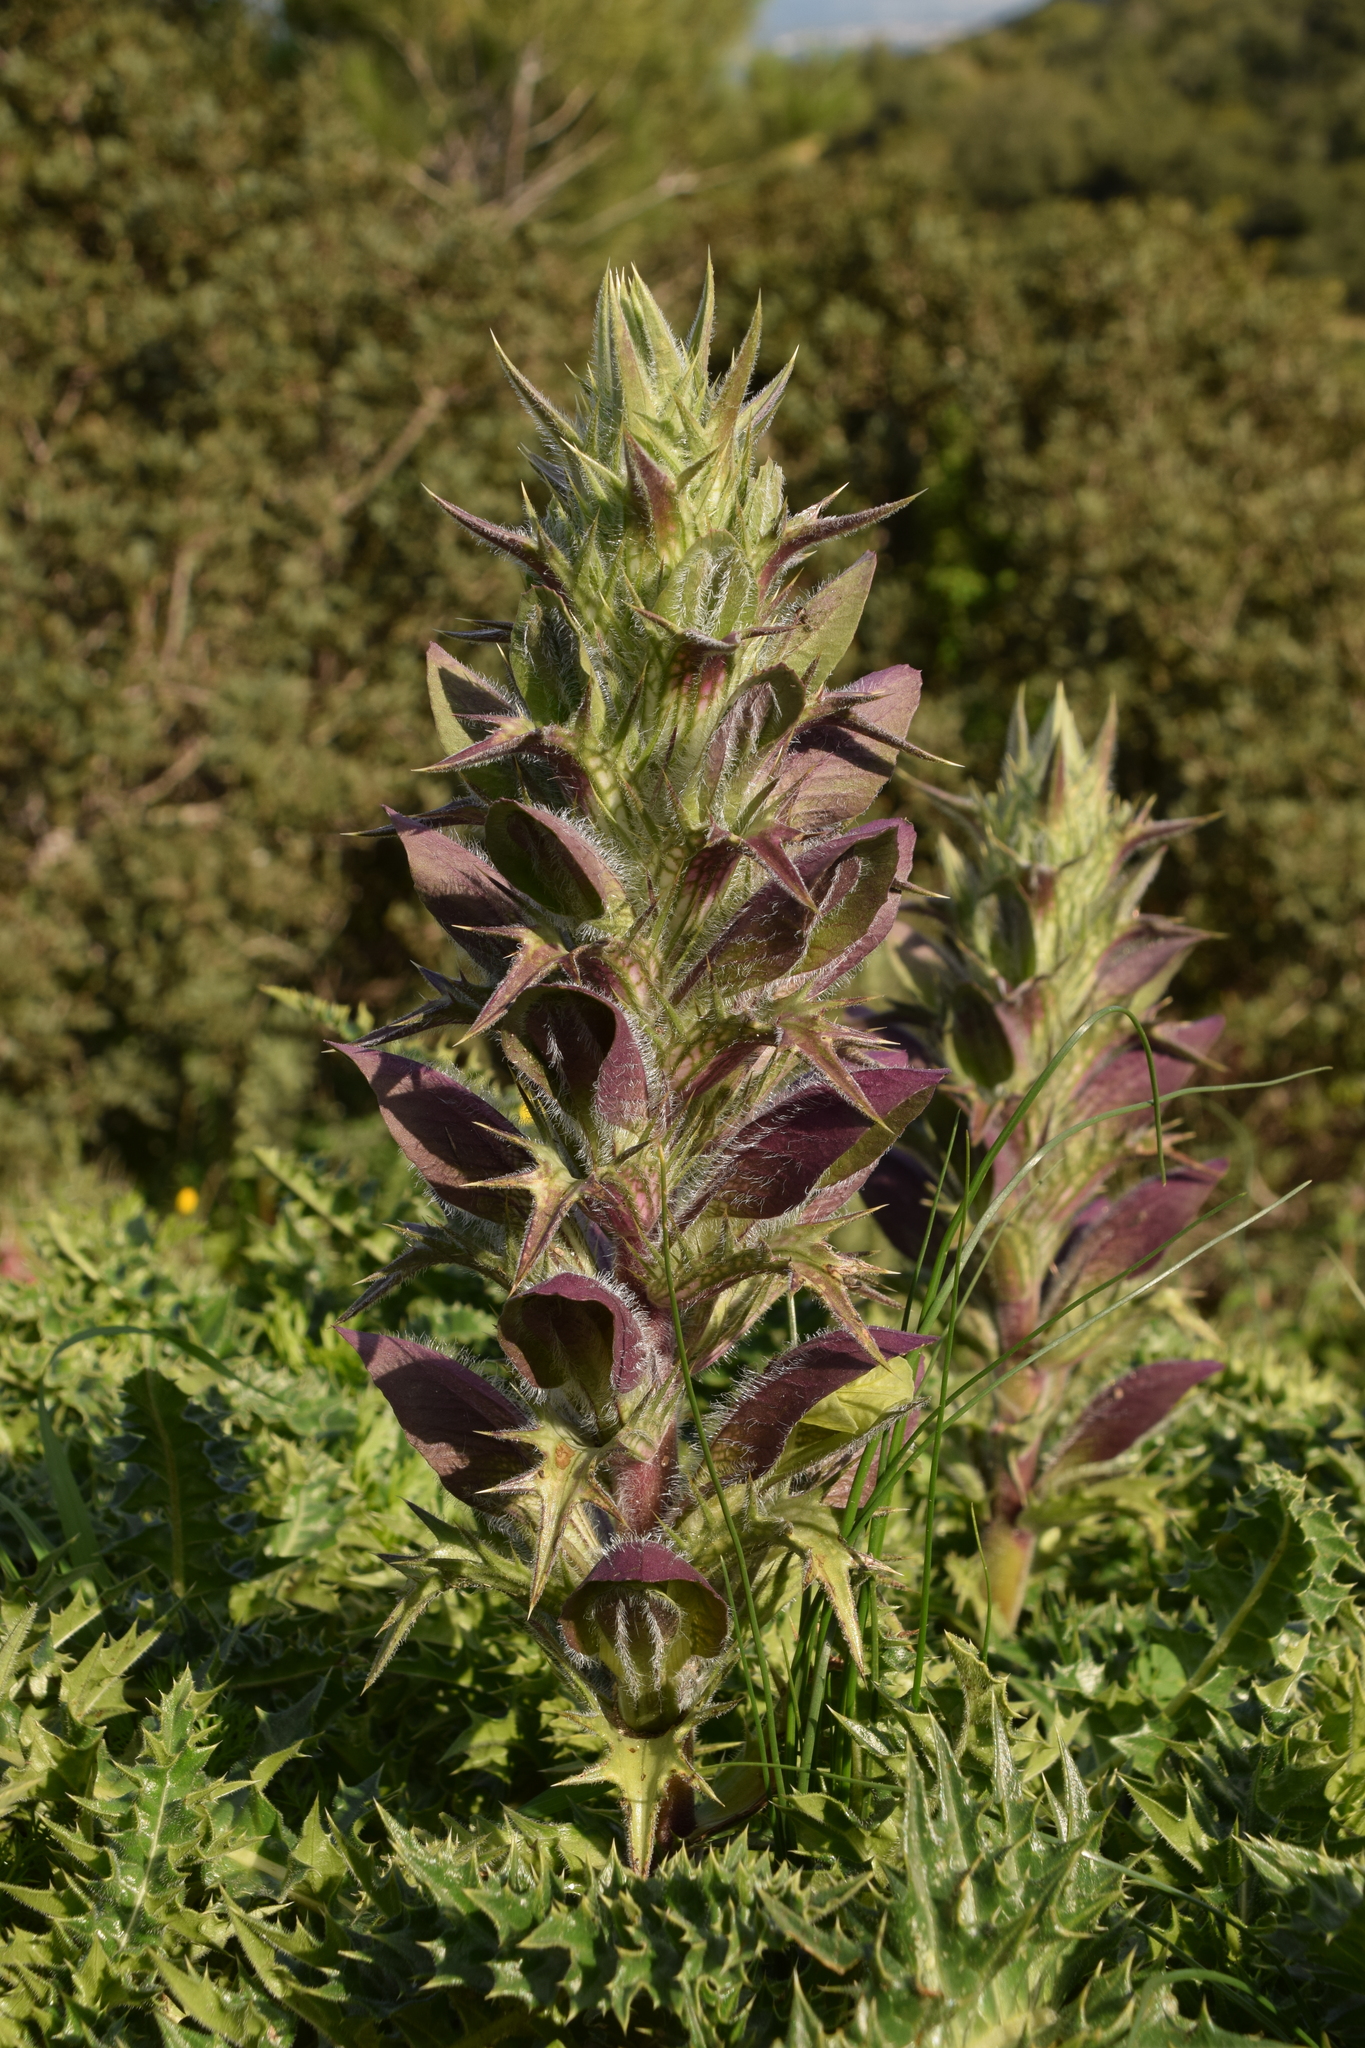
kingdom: Plantae
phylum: Tracheophyta
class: Magnoliopsida
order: Lamiales
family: Acanthaceae
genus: Acanthus
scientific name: Acanthus hirsutus
